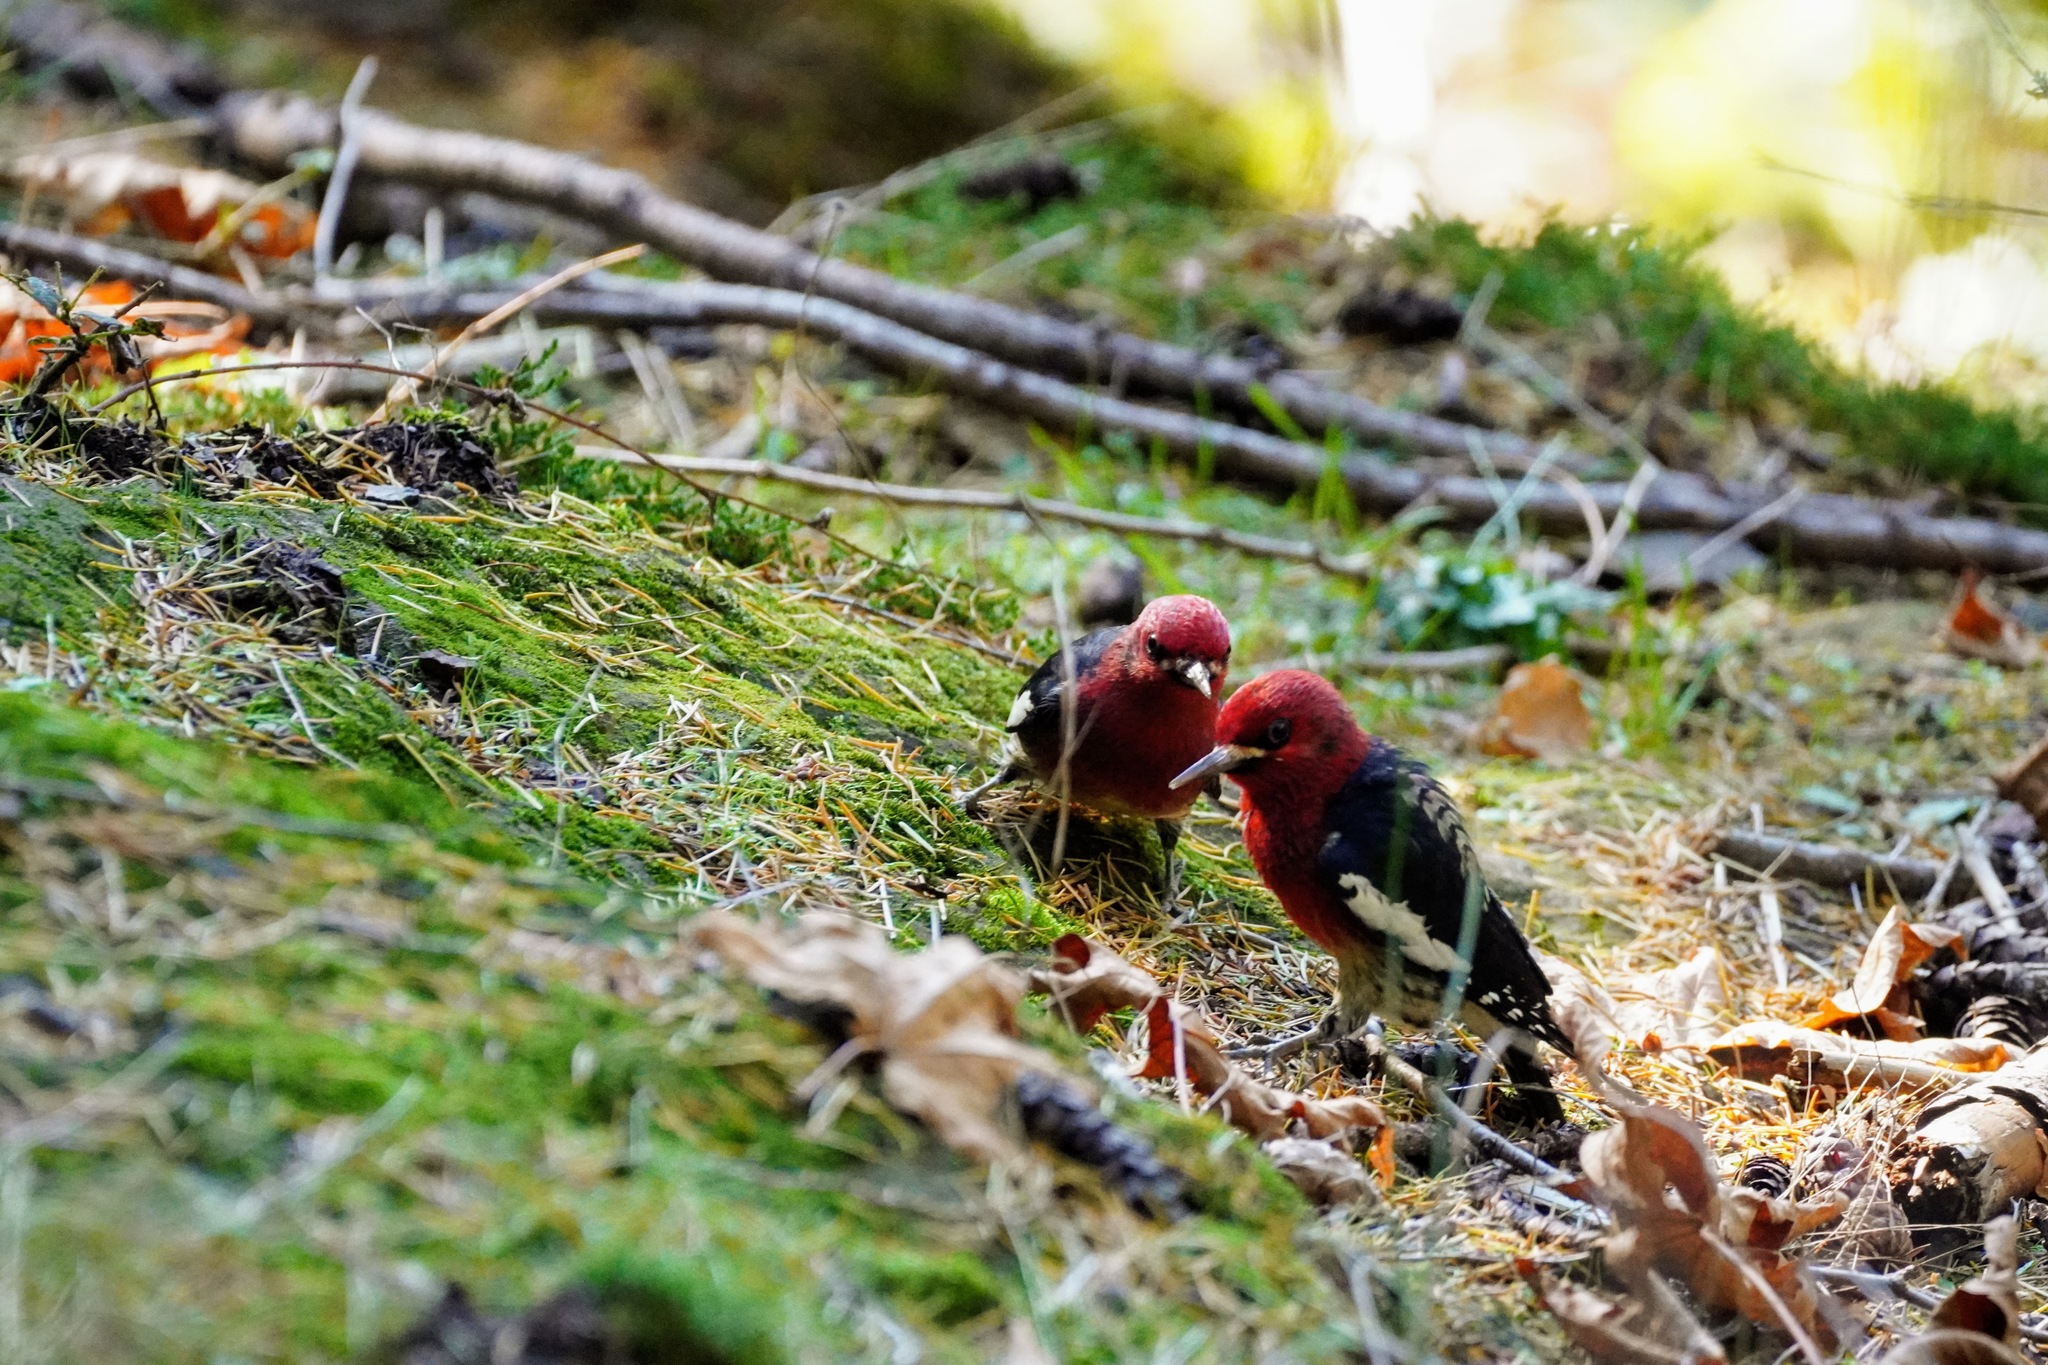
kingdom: Animalia
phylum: Chordata
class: Aves
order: Piciformes
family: Picidae
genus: Sphyrapicus
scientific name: Sphyrapicus ruber
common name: Red-breasted sapsucker
